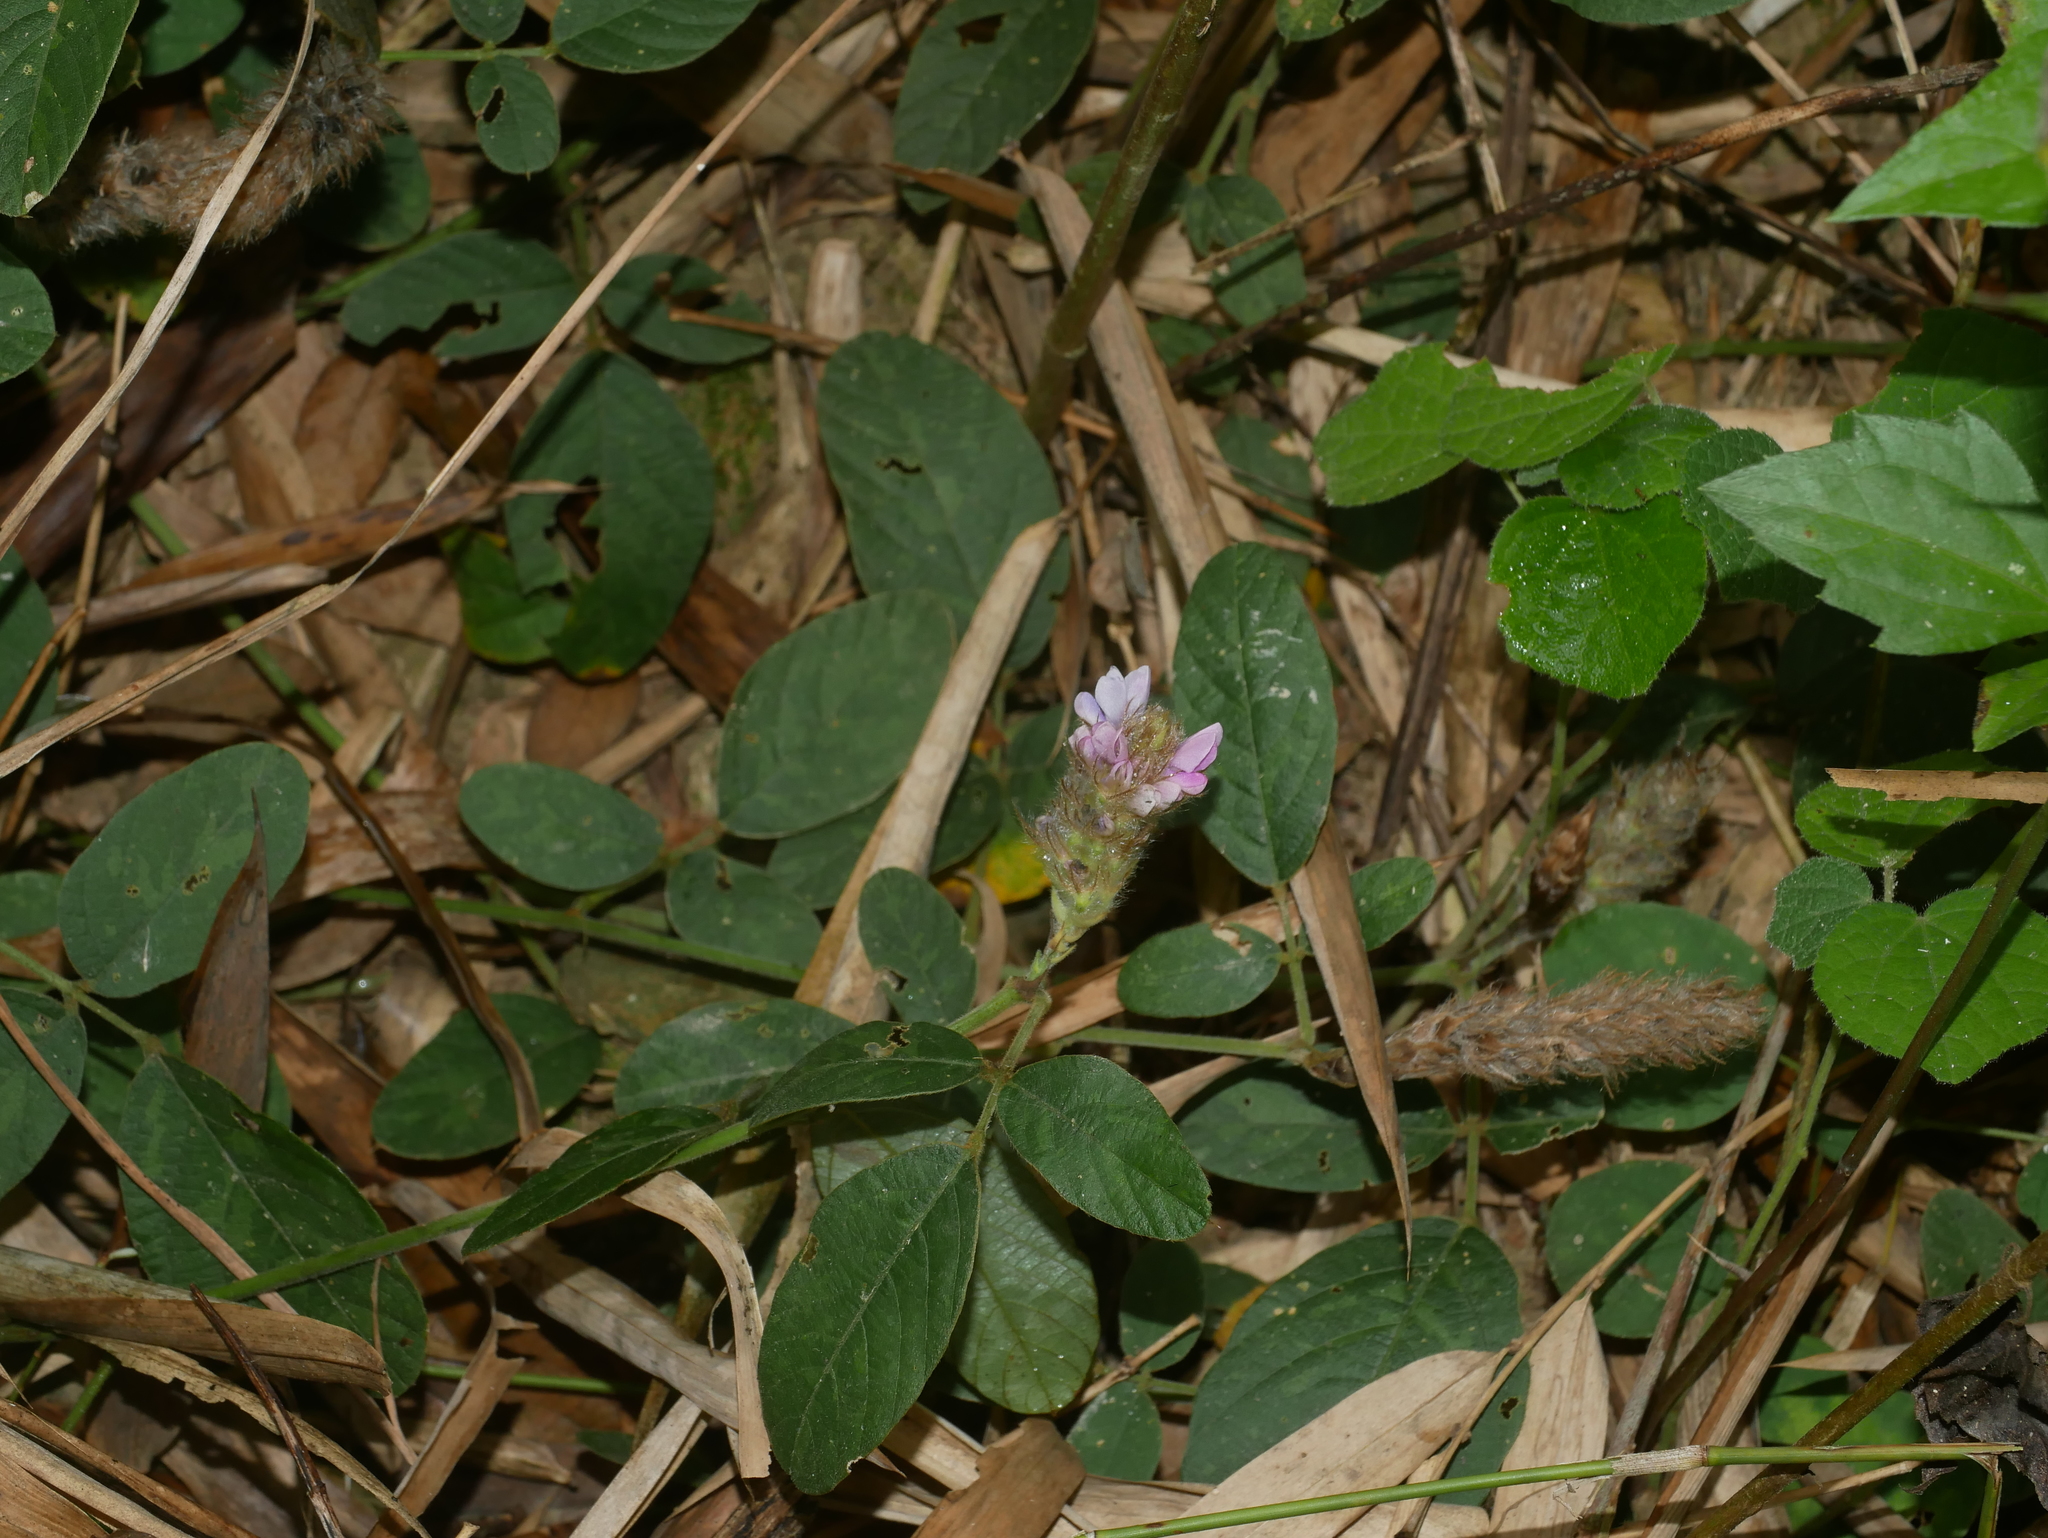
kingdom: Plantae
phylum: Tracheophyta
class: Magnoliopsida
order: Fabales
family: Fabaceae
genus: Uraria
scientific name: Uraria lagopodioides
